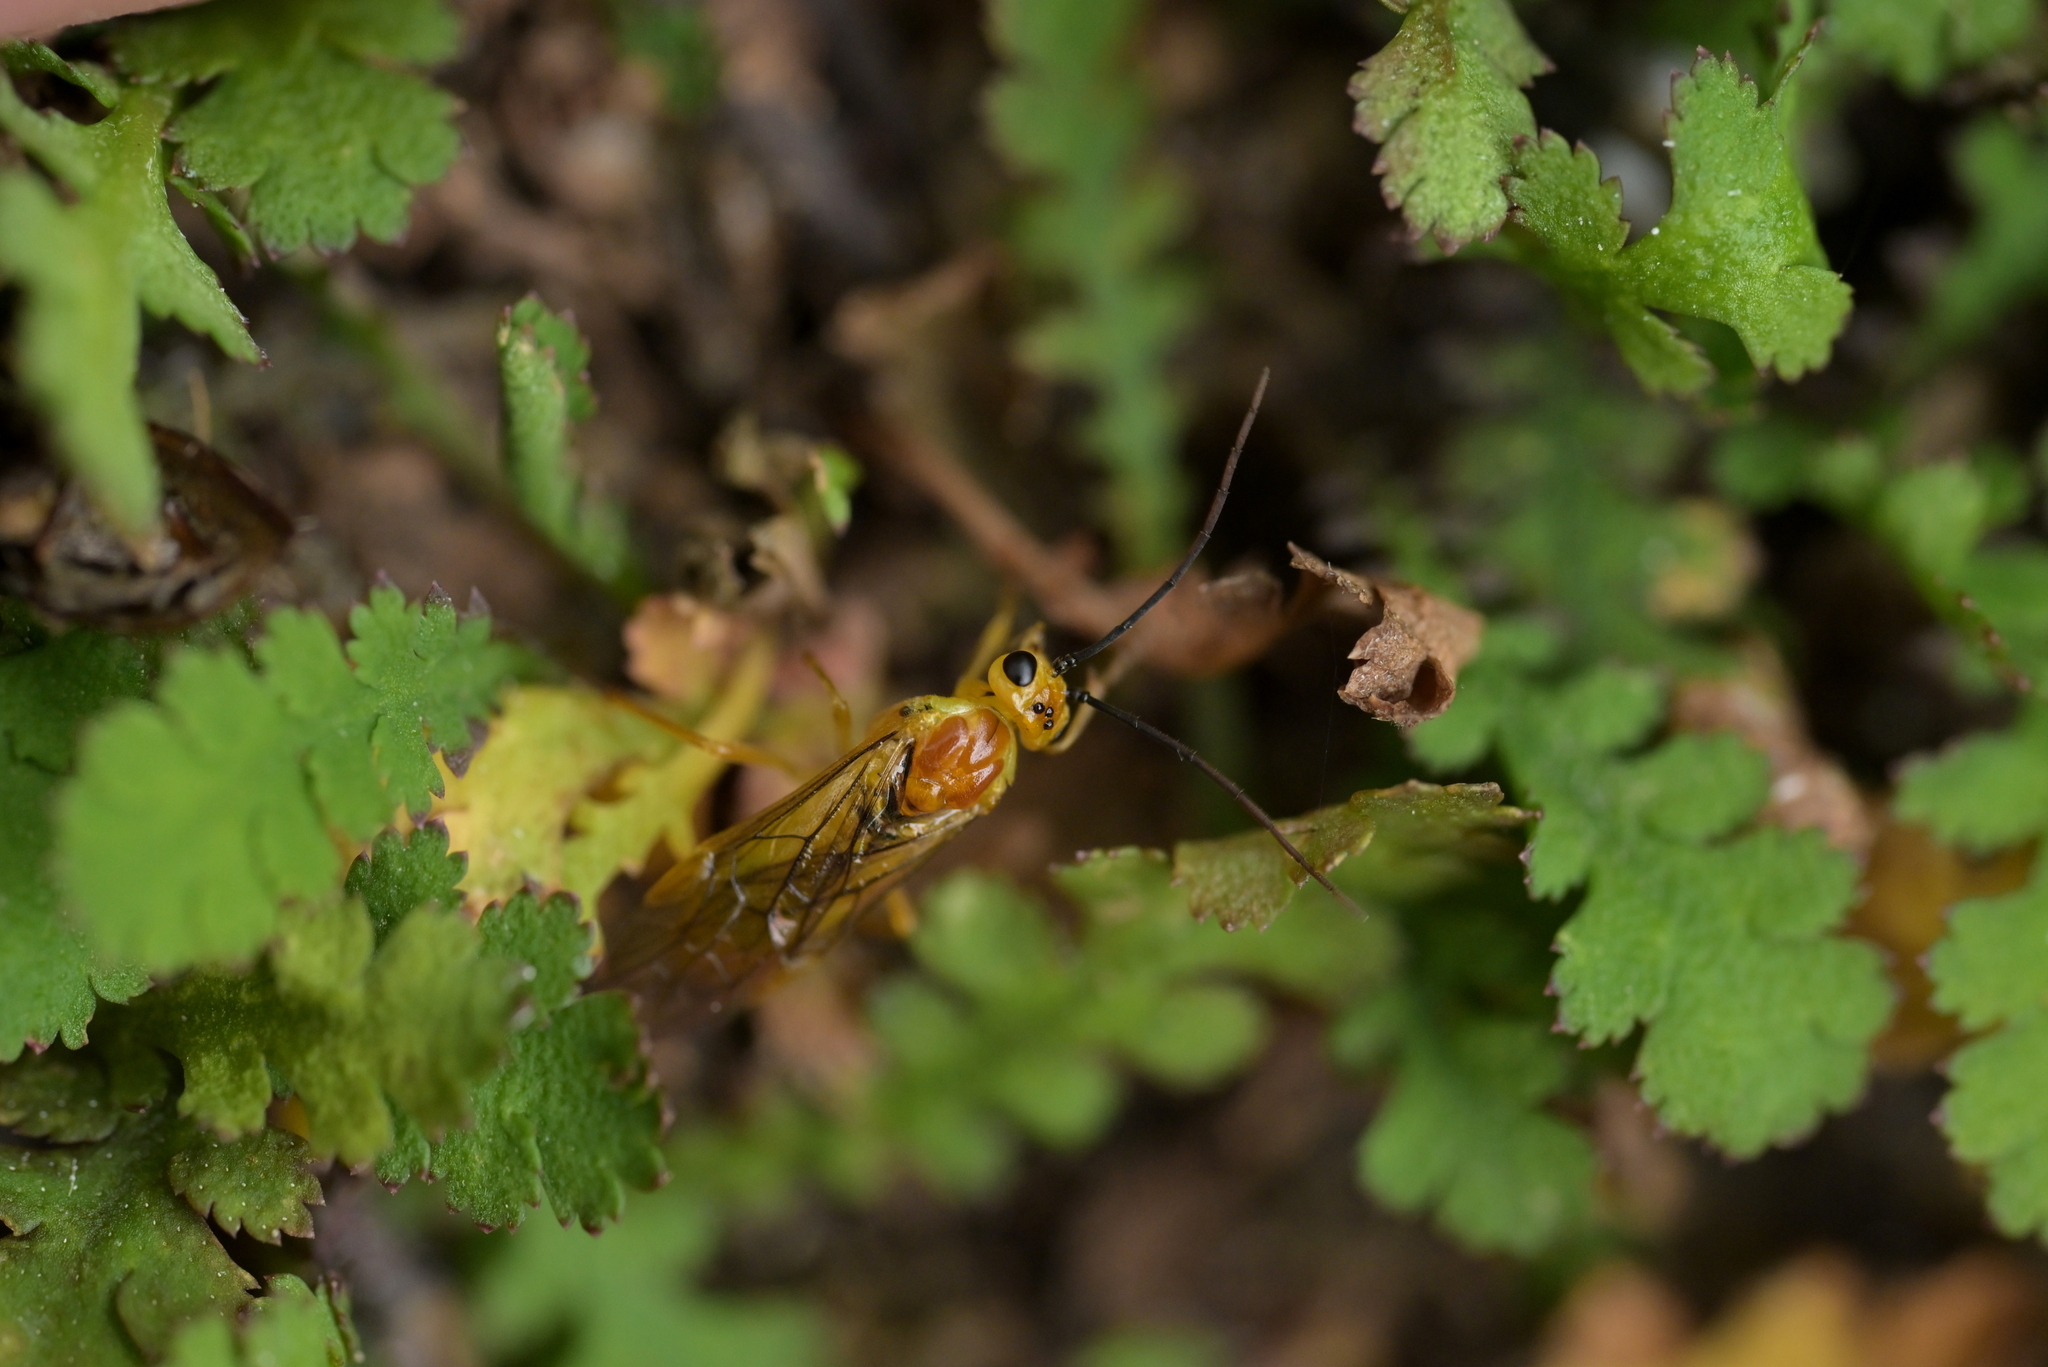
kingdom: Animalia
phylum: Arthropoda
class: Insecta
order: Hymenoptera
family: Tenthredinidae
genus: Euura
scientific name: Euura oligospila
